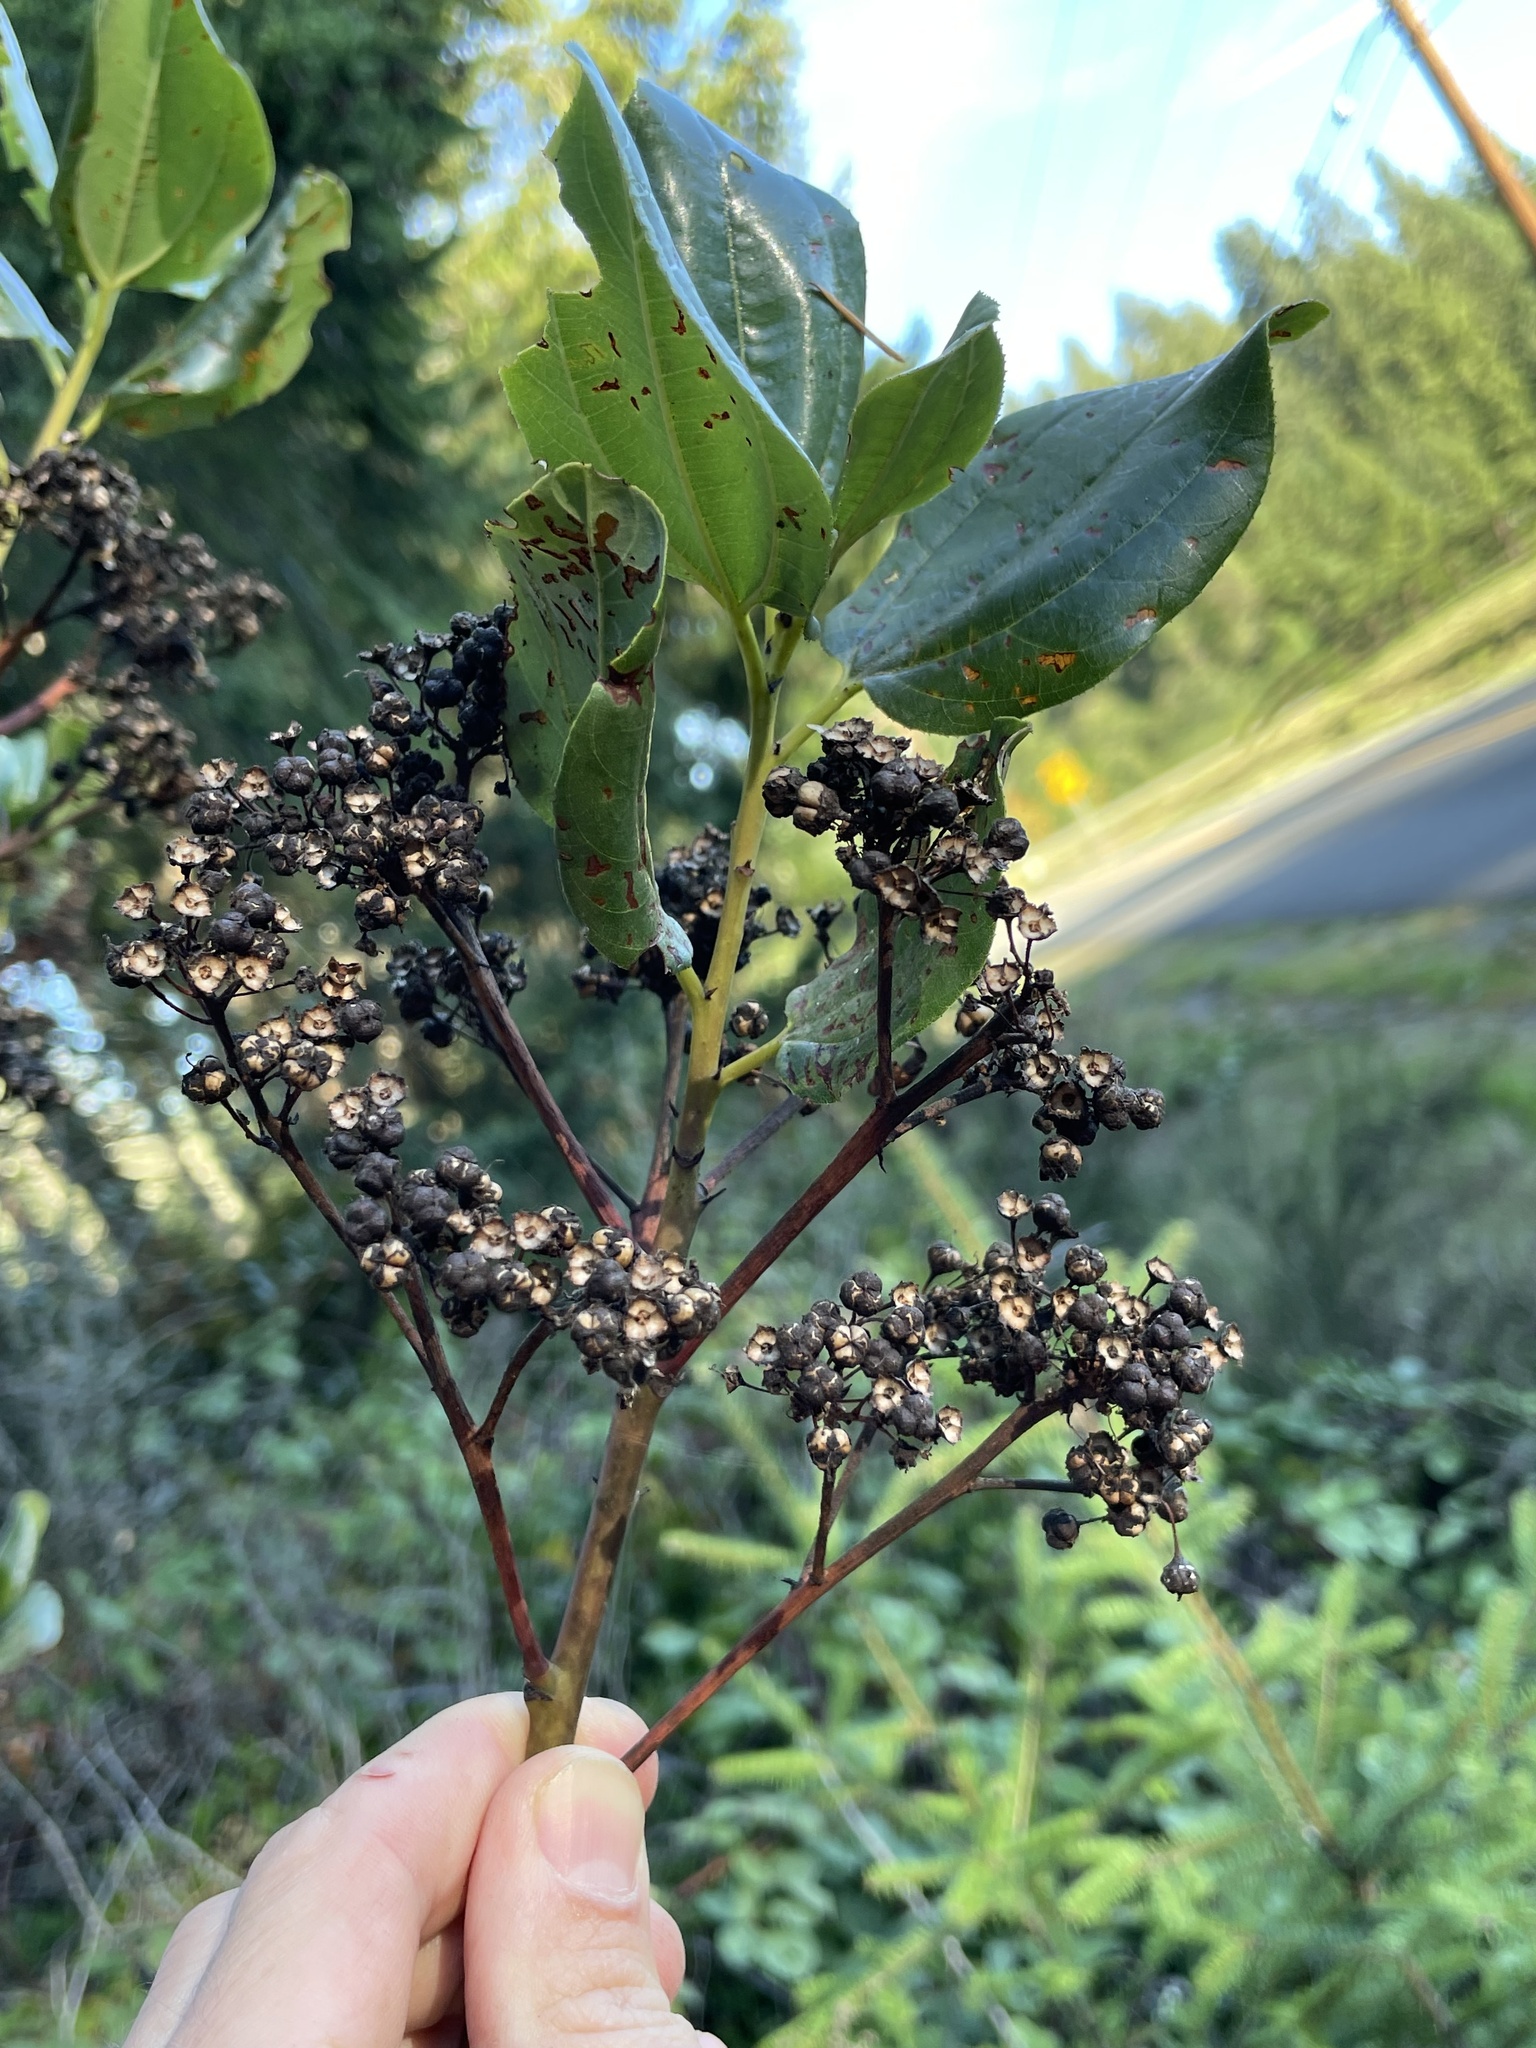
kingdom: Plantae
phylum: Tracheophyta
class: Magnoliopsida
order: Rosales
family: Rhamnaceae
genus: Ceanothus
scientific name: Ceanothus velutinus
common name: Snowbrush
